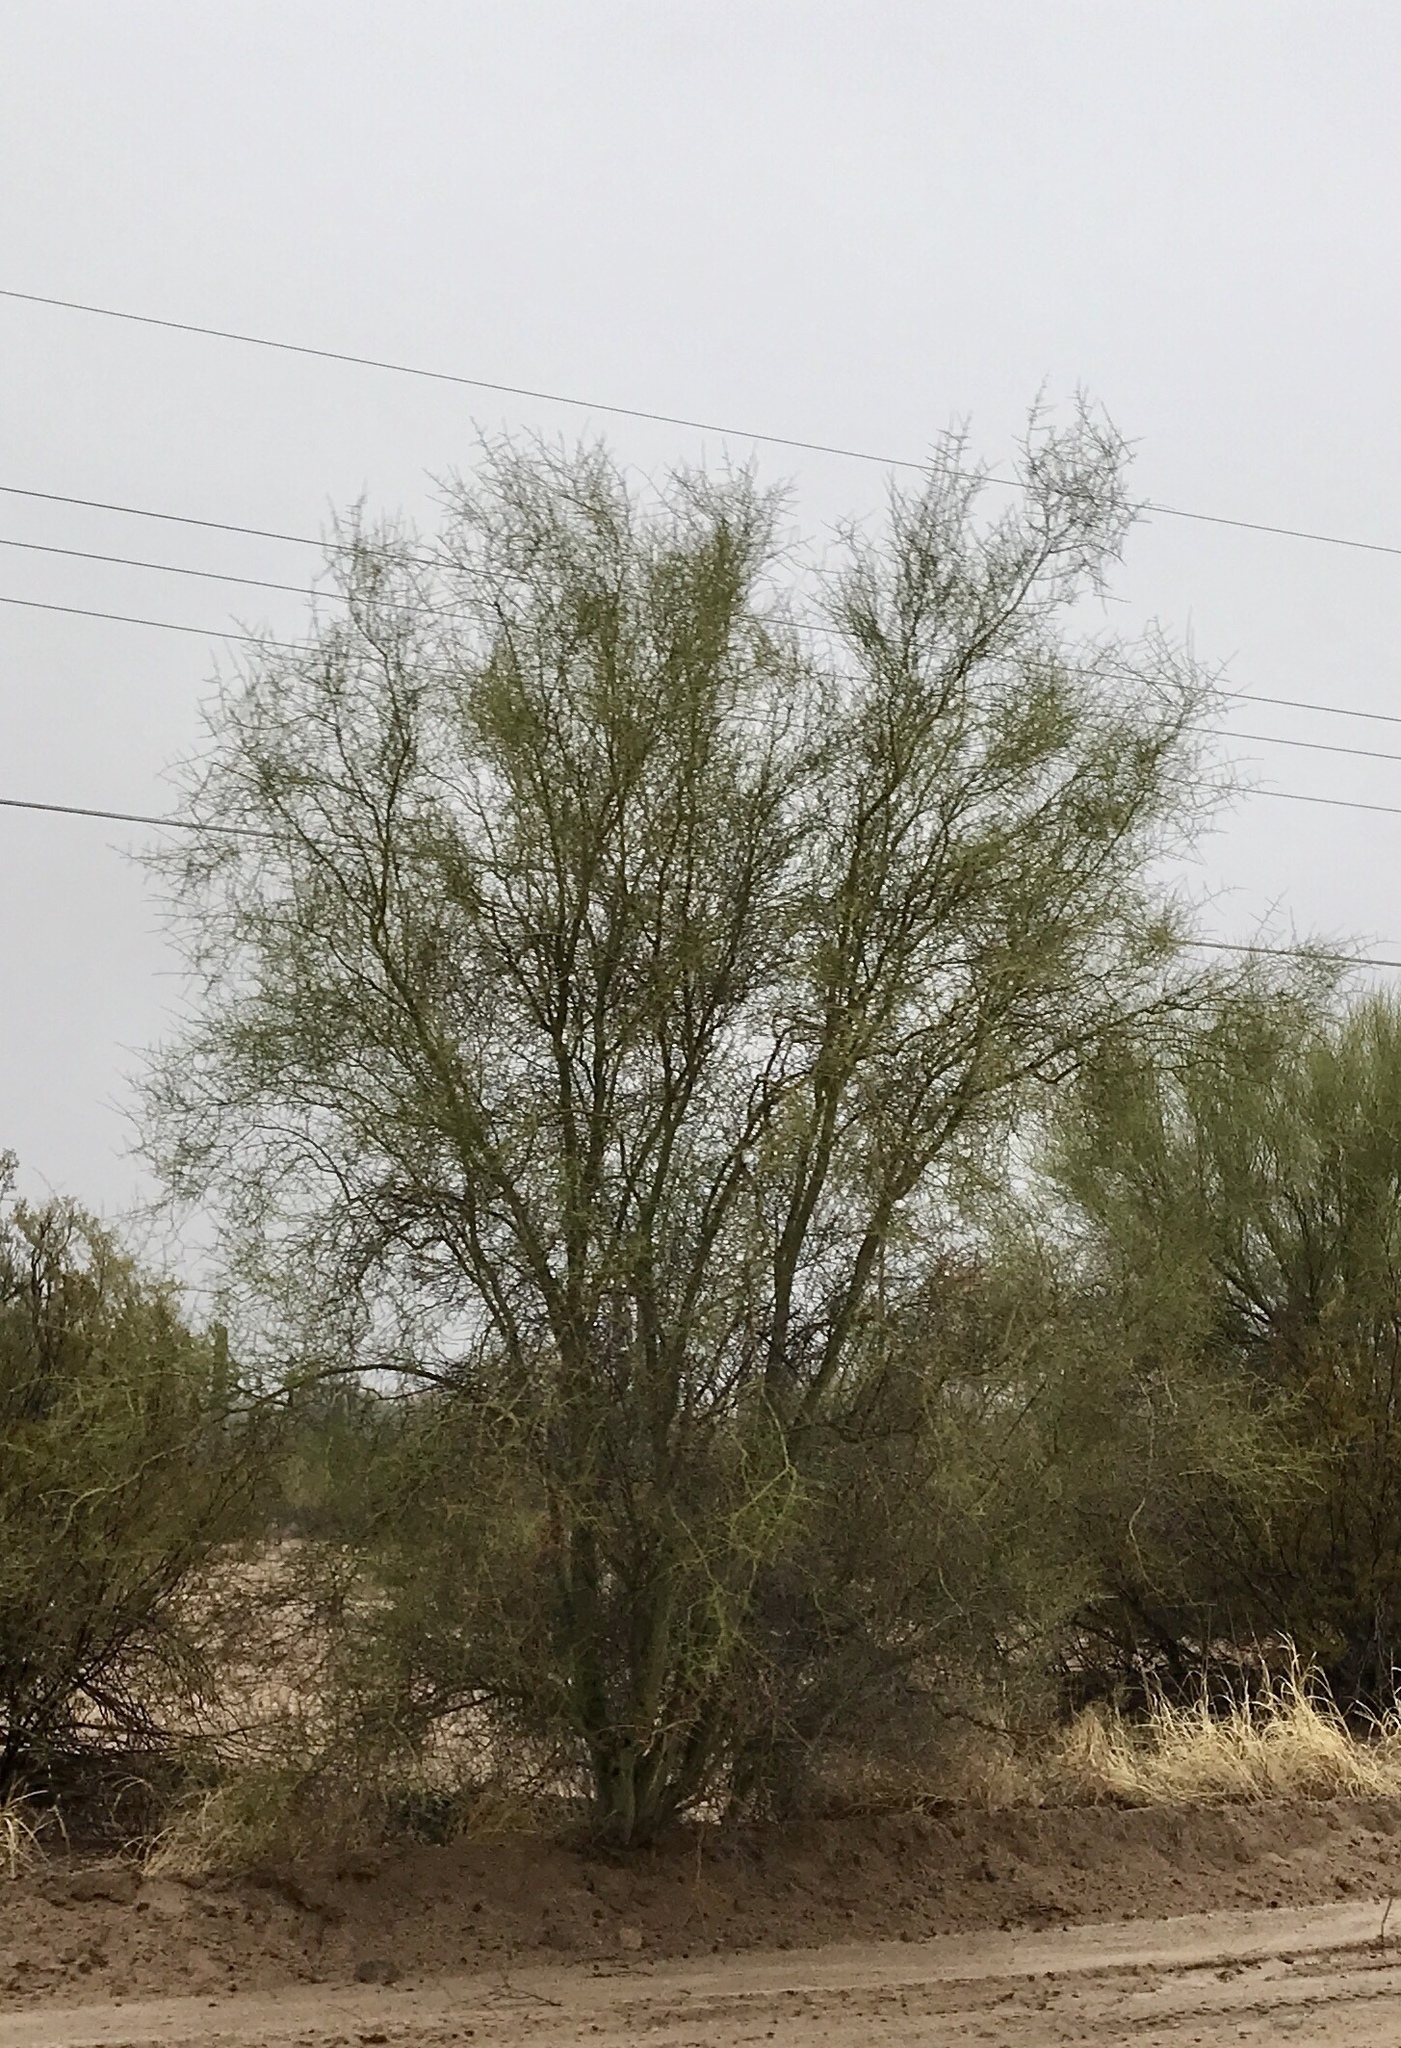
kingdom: Plantae
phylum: Tracheophyta
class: Magnoliopsida
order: Fabales
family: Fabaceae
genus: Parkinsonia
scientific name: Parkinsonia florida
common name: Blue paloverde
